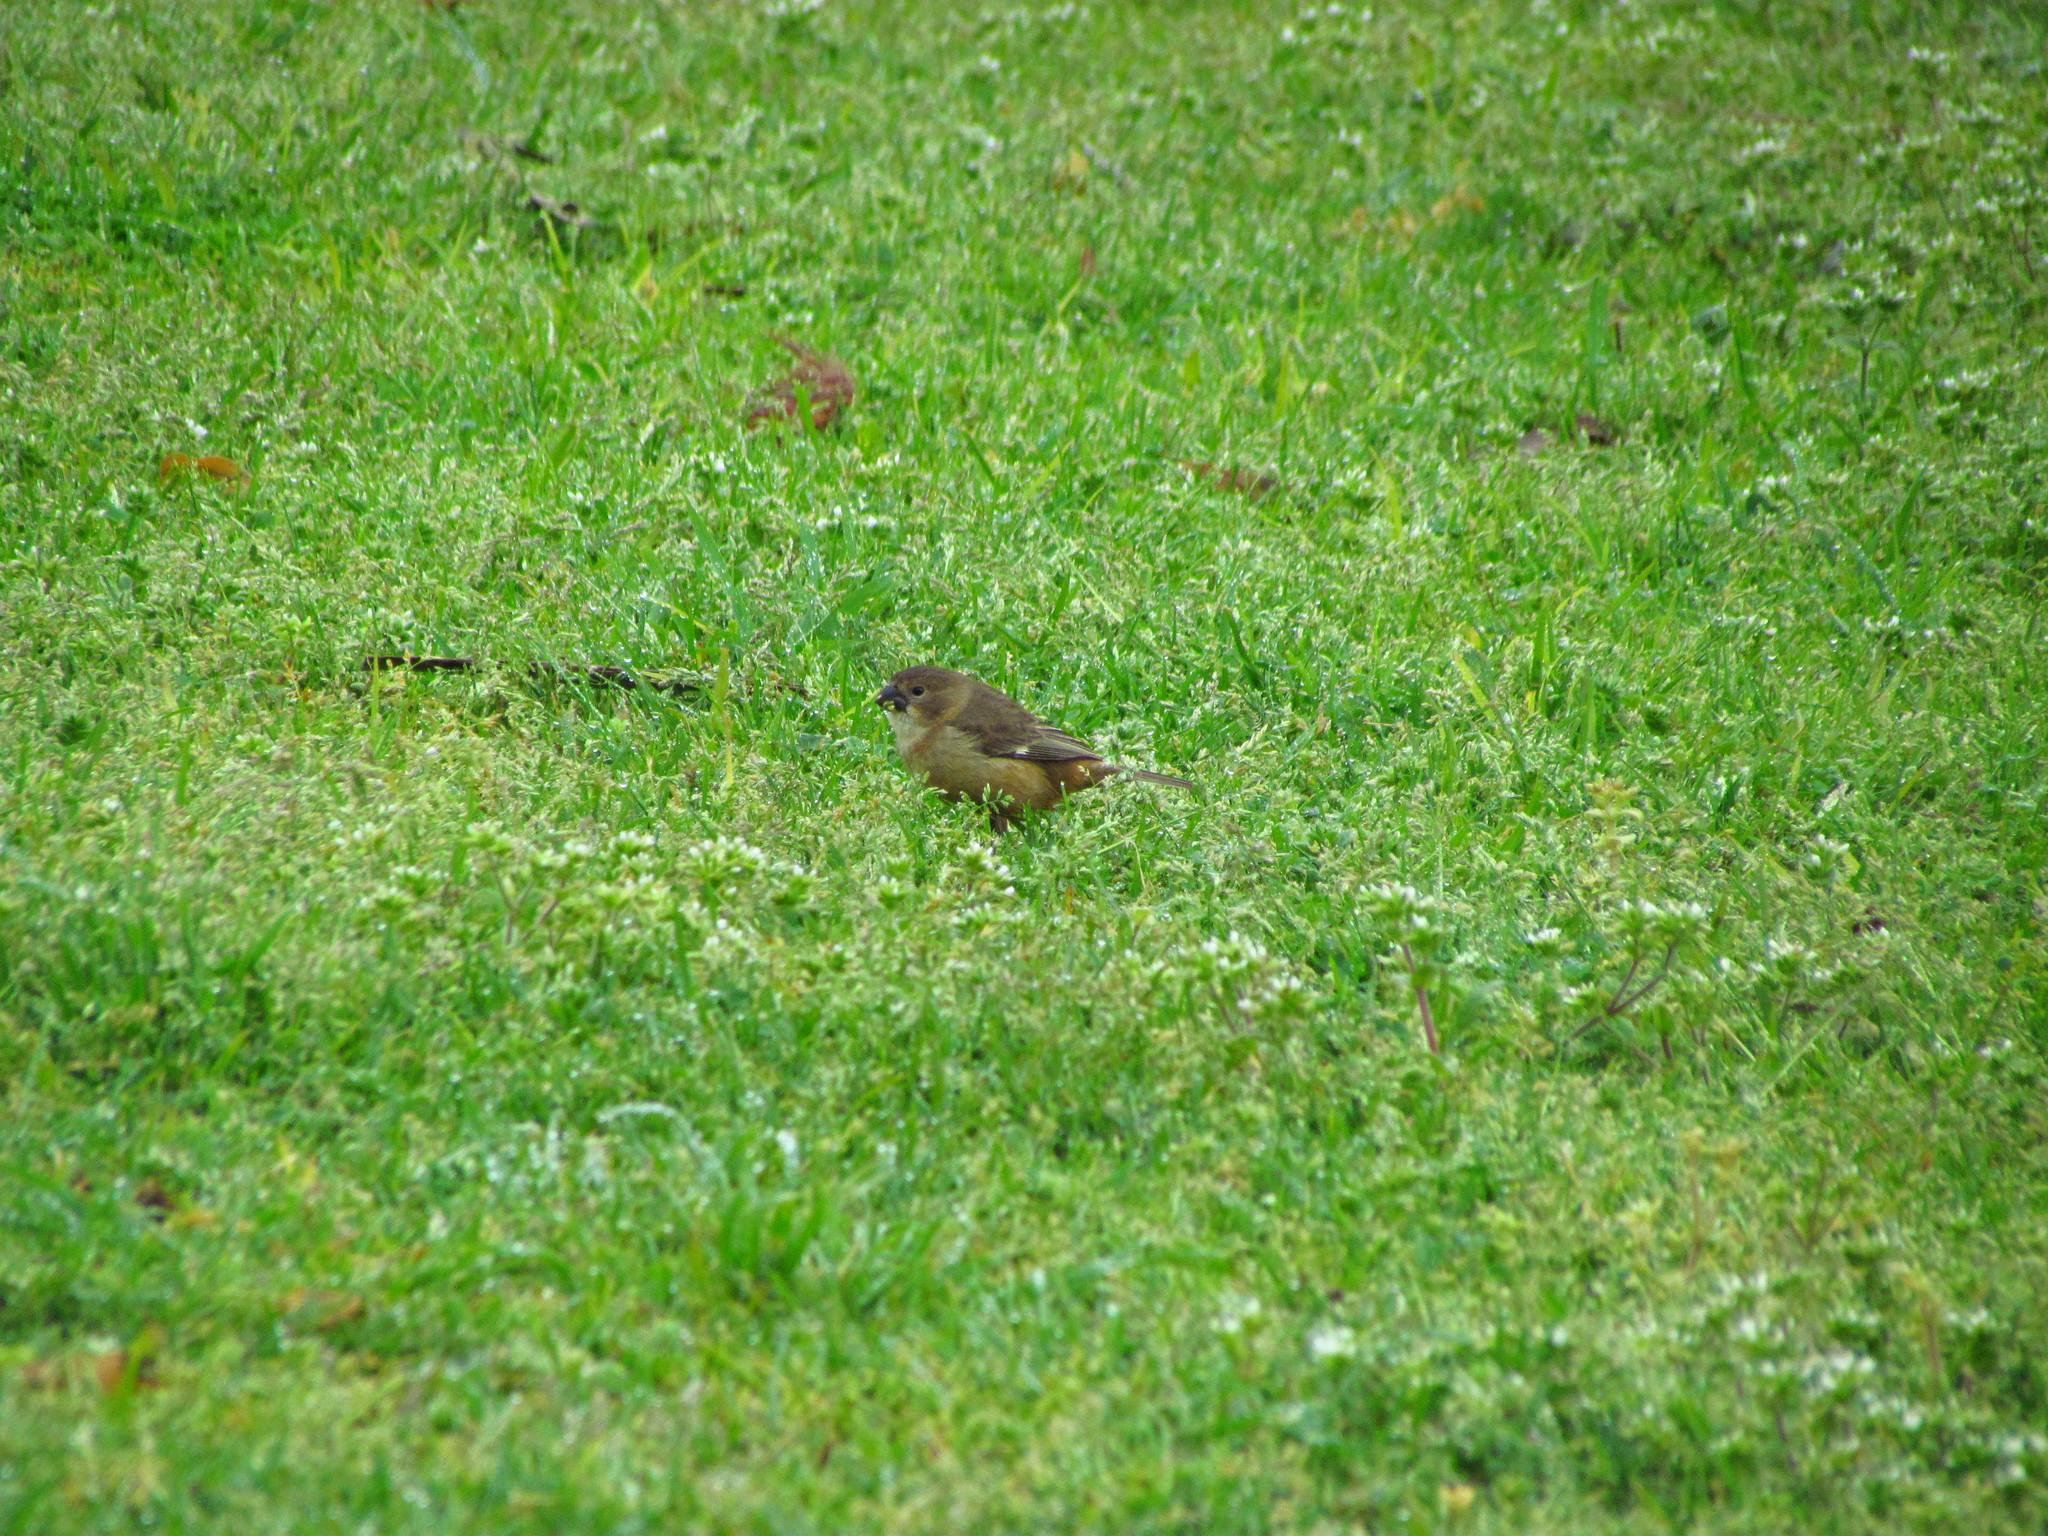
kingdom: Animalia
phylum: Chordata
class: Aves
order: Passeriformes
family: Thraupidae
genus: Sporophila
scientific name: Sporophila caerulescens
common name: Double-collared seedeater
